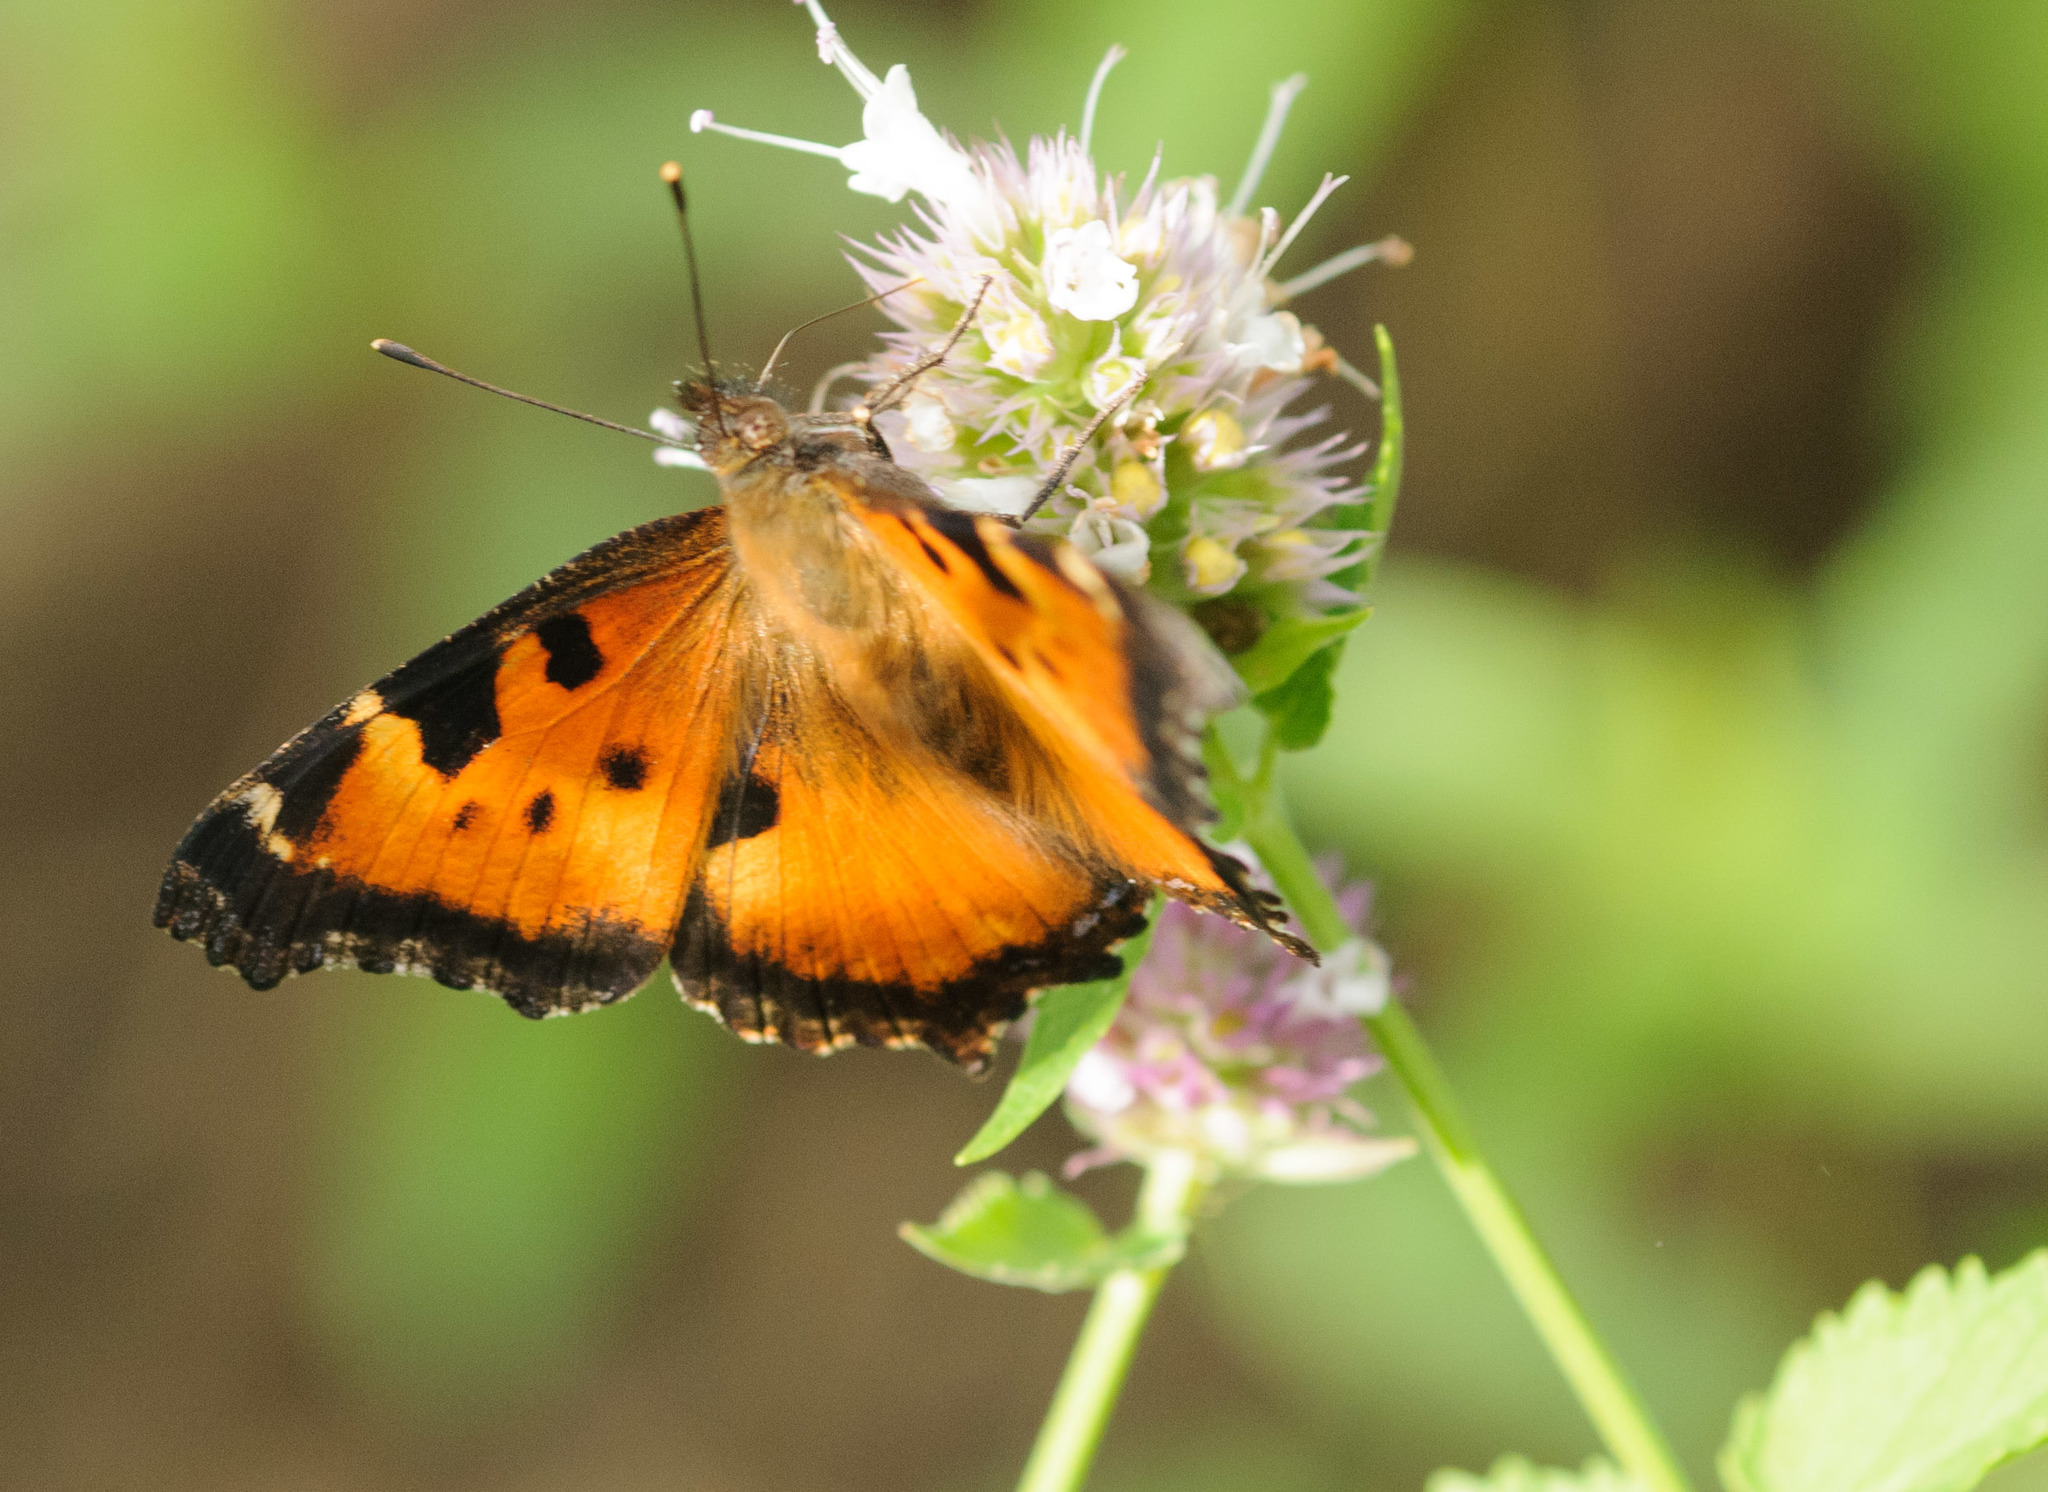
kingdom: Animalia
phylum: Arthropoda
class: Insecta
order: Lepidoptera
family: Nymphalidae
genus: Nymphalis
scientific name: Nymphalis californica
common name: California tortoiseshell
